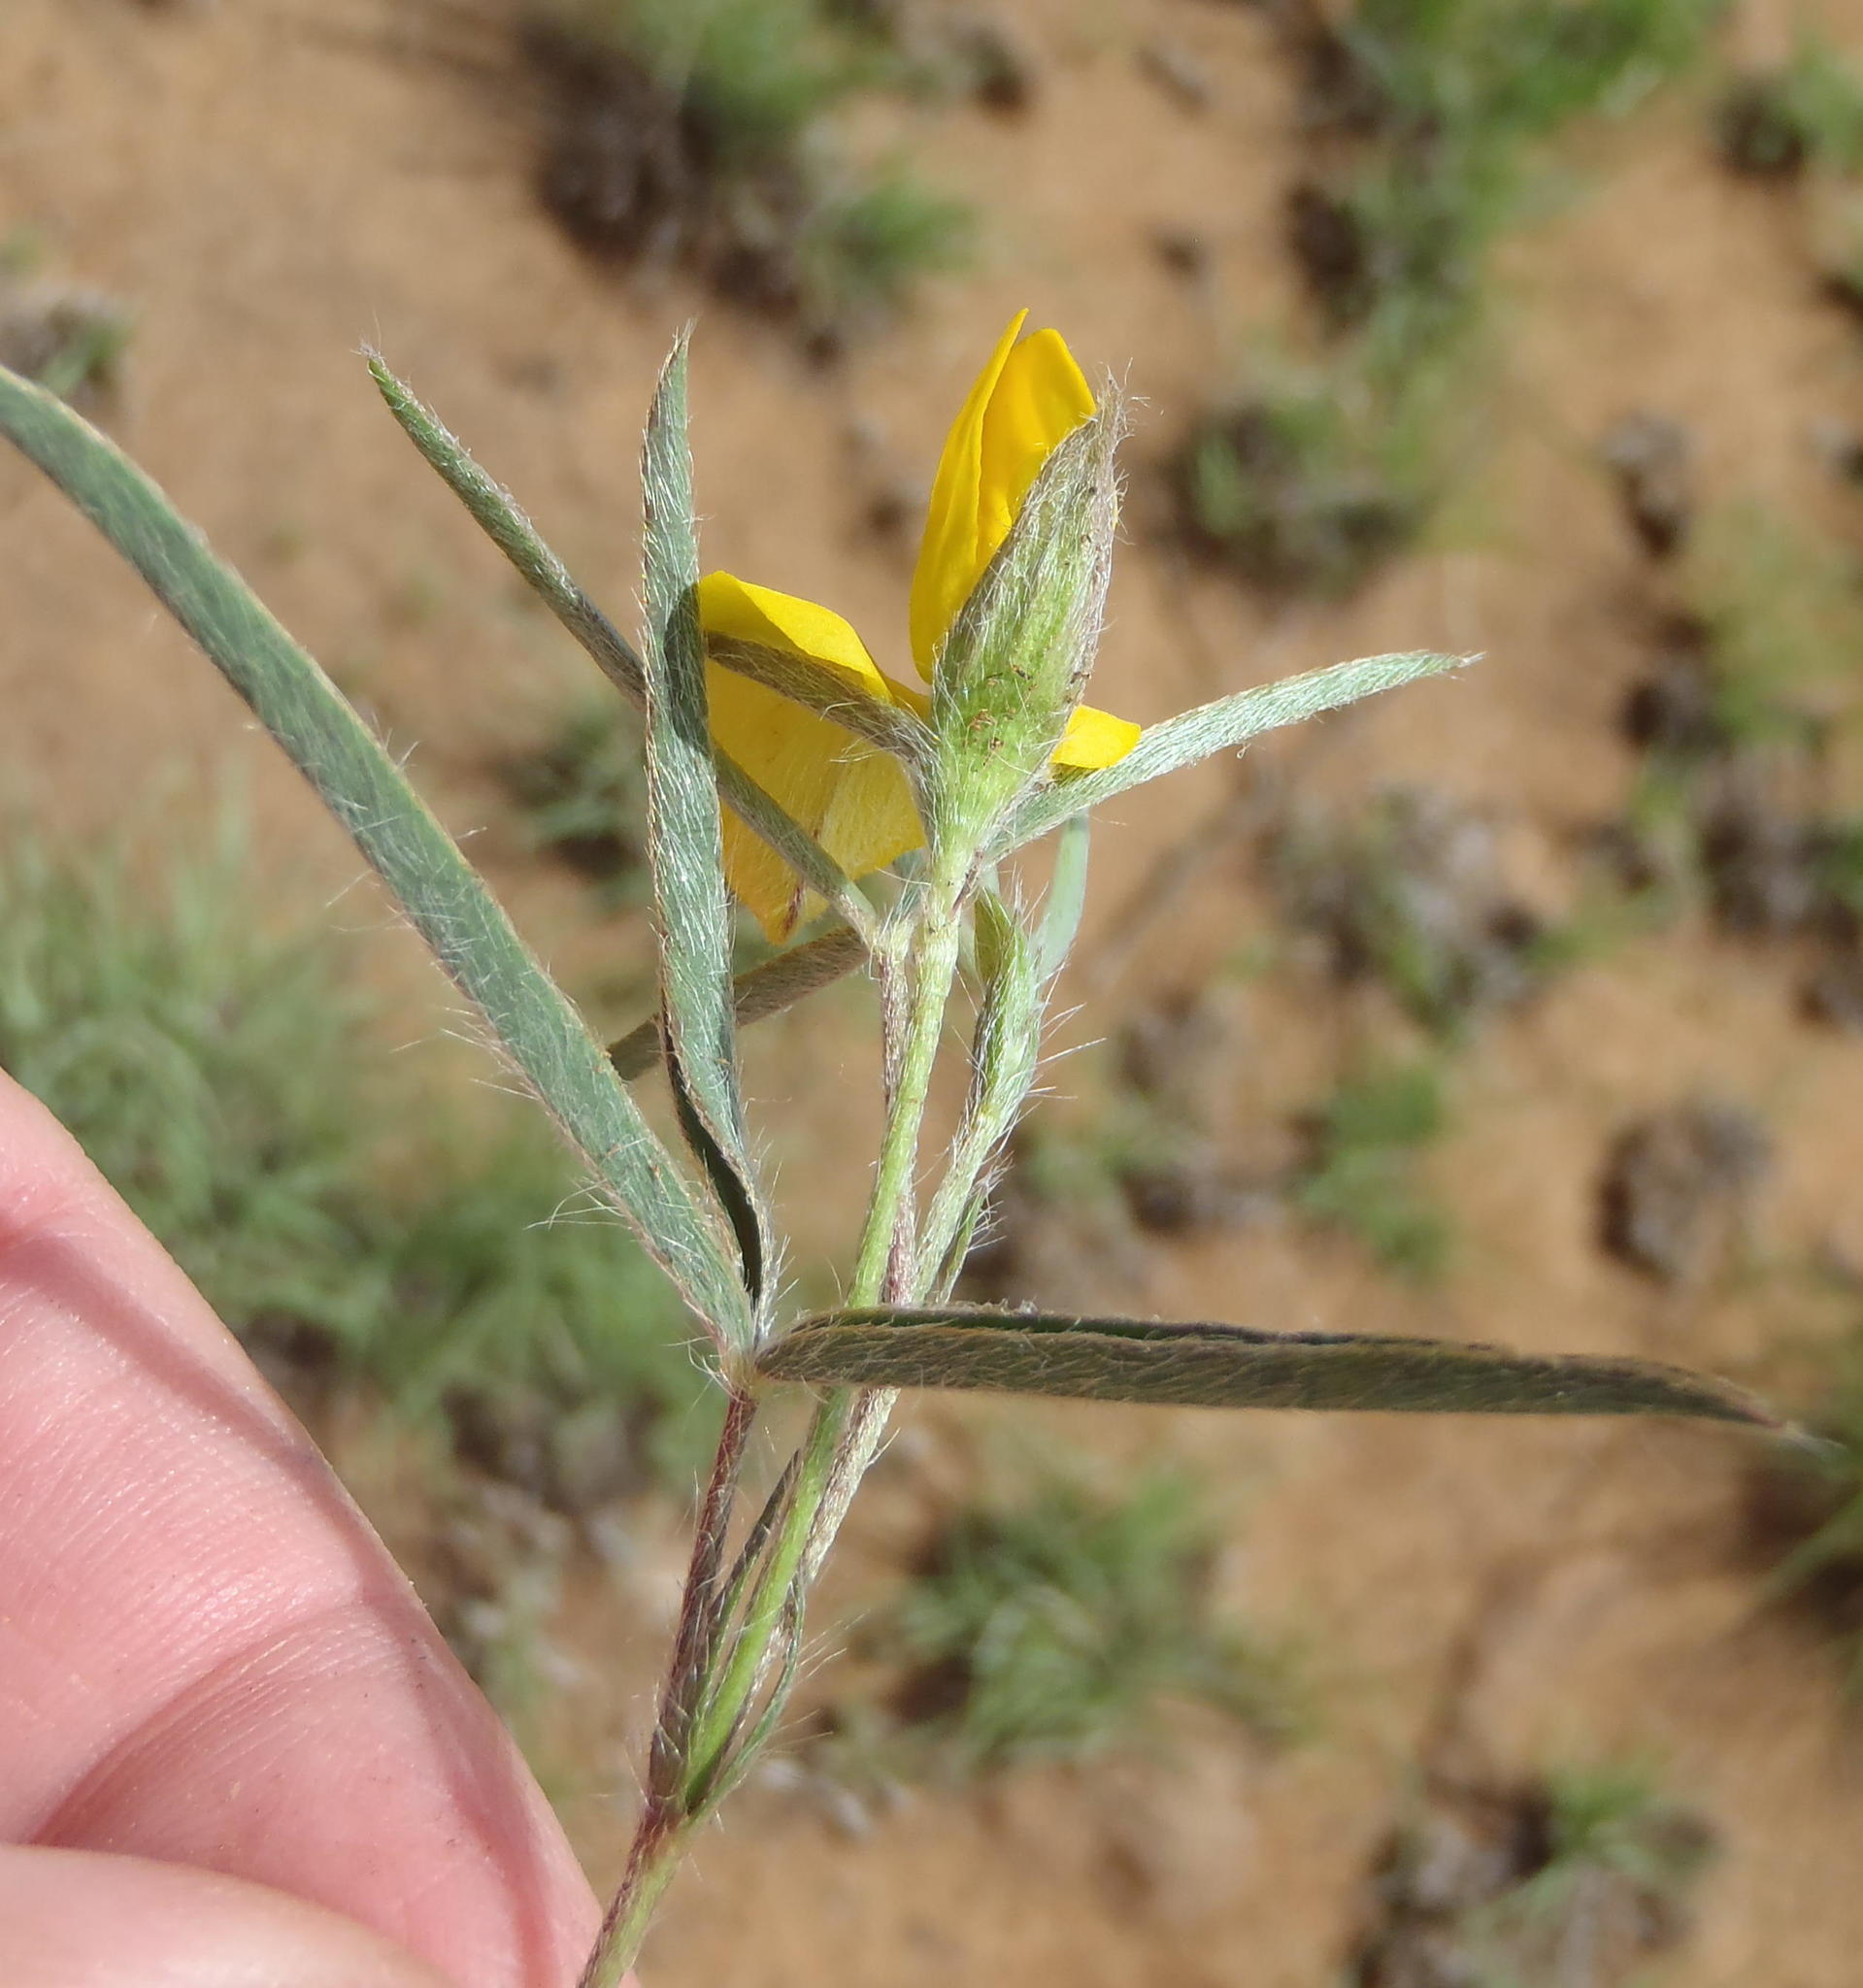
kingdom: Plantae
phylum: Tracheophyta
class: Magnoliopsida
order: Fabales
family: Fabaceae
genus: Argyrolobium
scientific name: Argyrolobium pauciflorum
